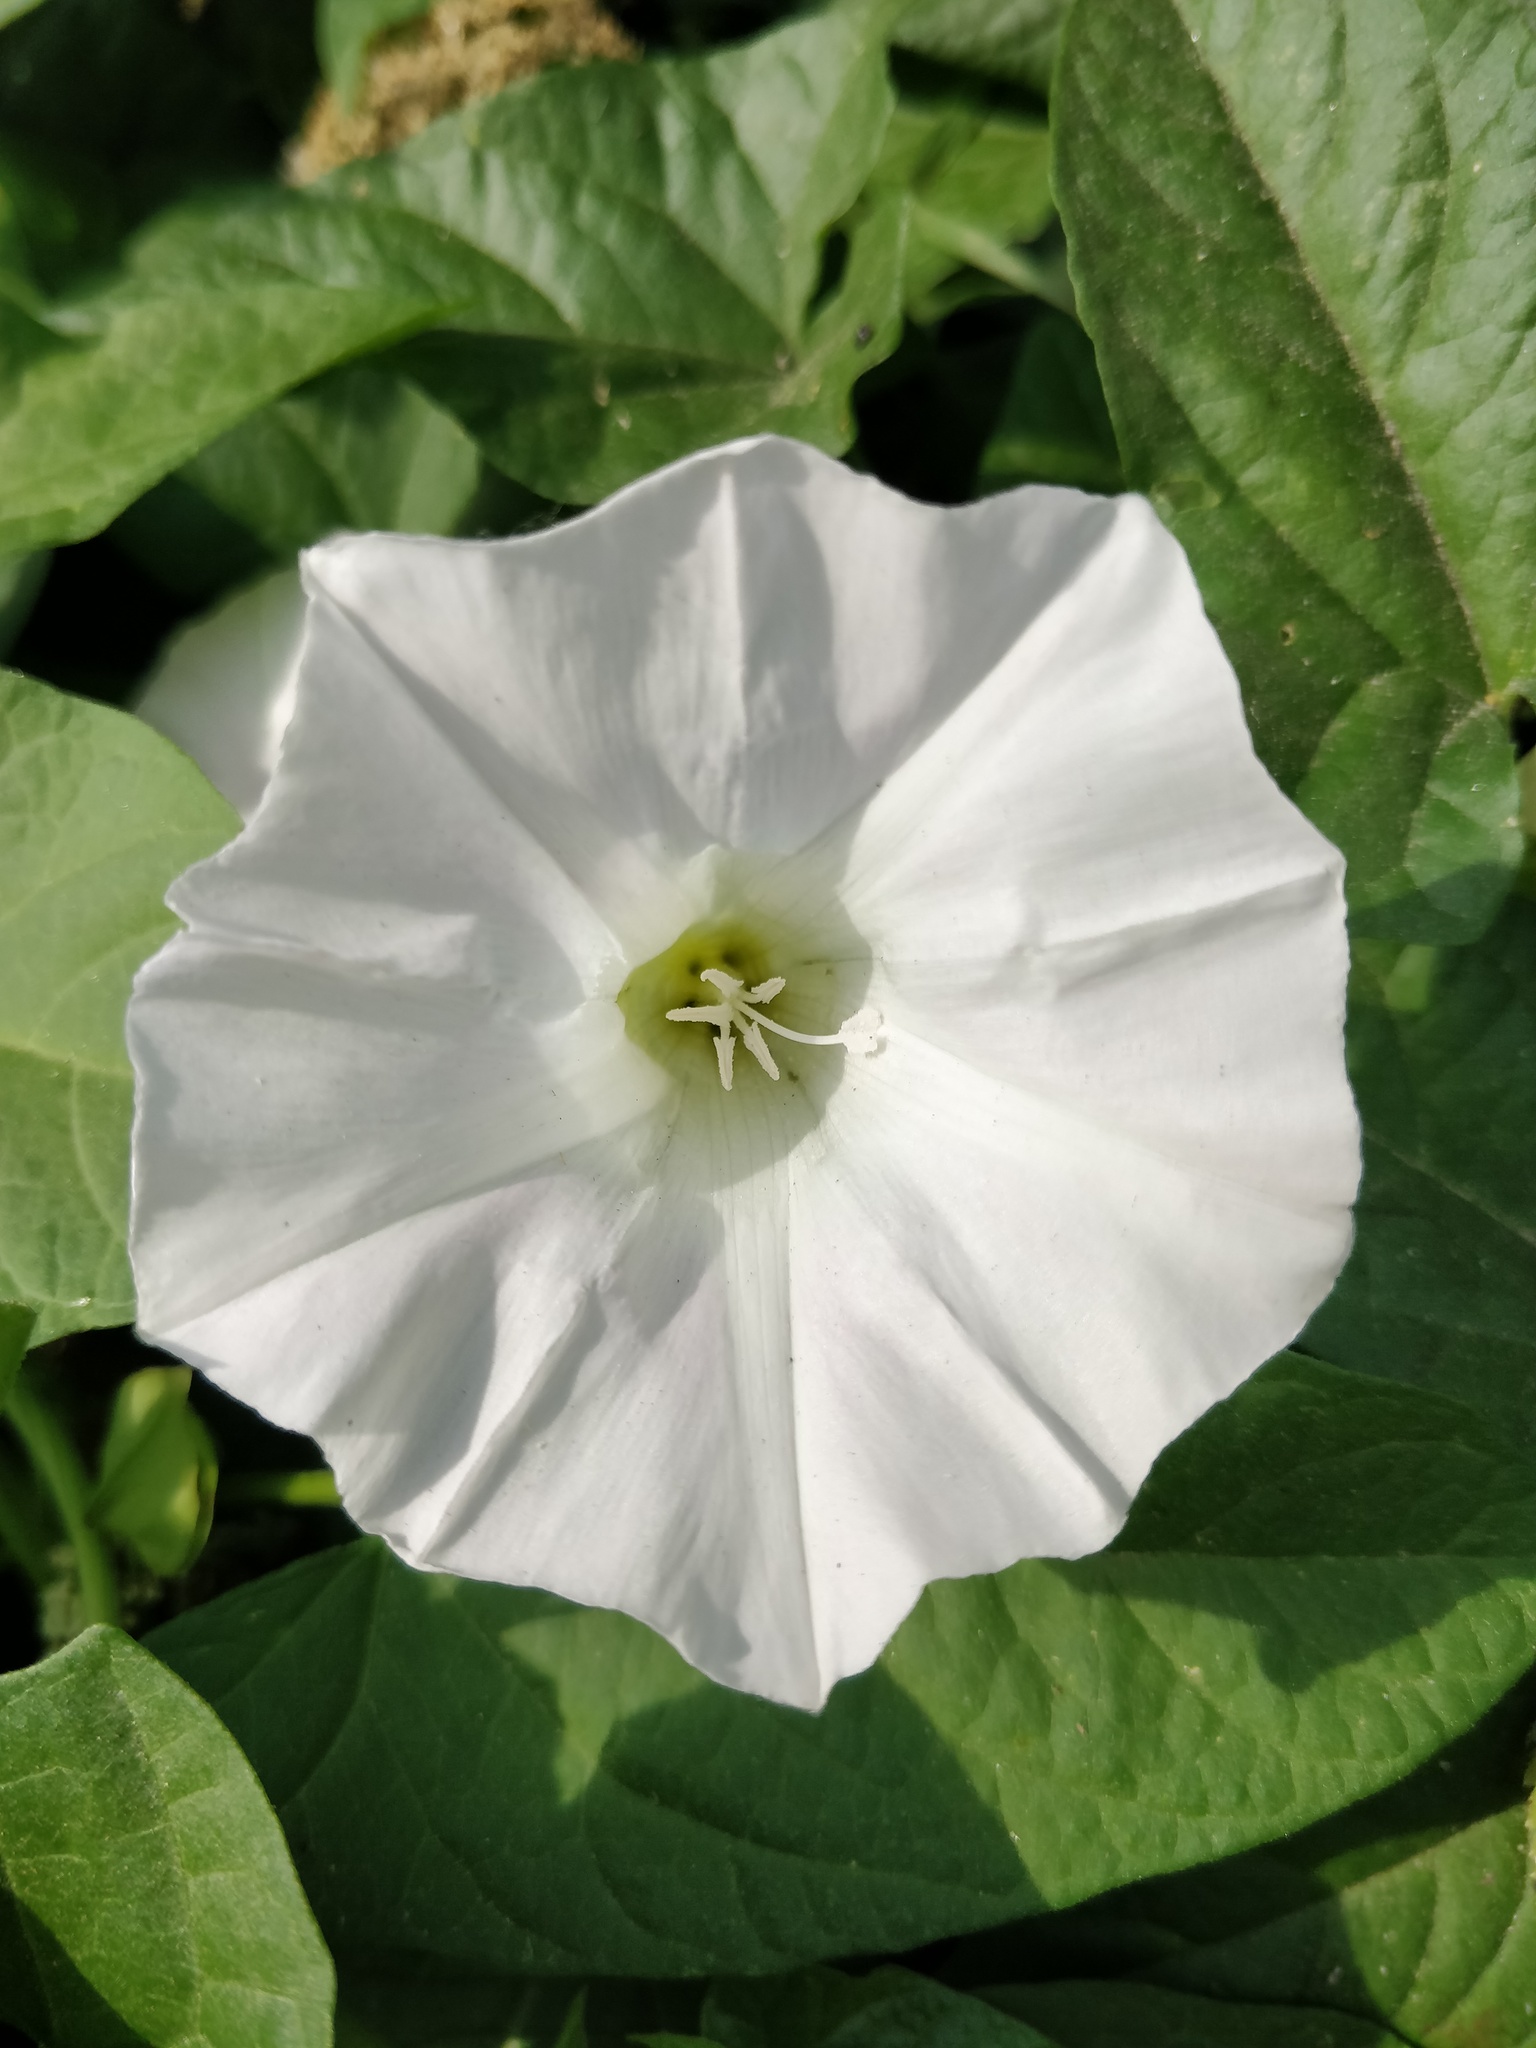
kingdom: Plantae
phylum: Tracheophyta
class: Magnoliopsida
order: Solanales
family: Convolvulaceae
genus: Calystegia
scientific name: Calystegia sepium
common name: Hedge bindweed
